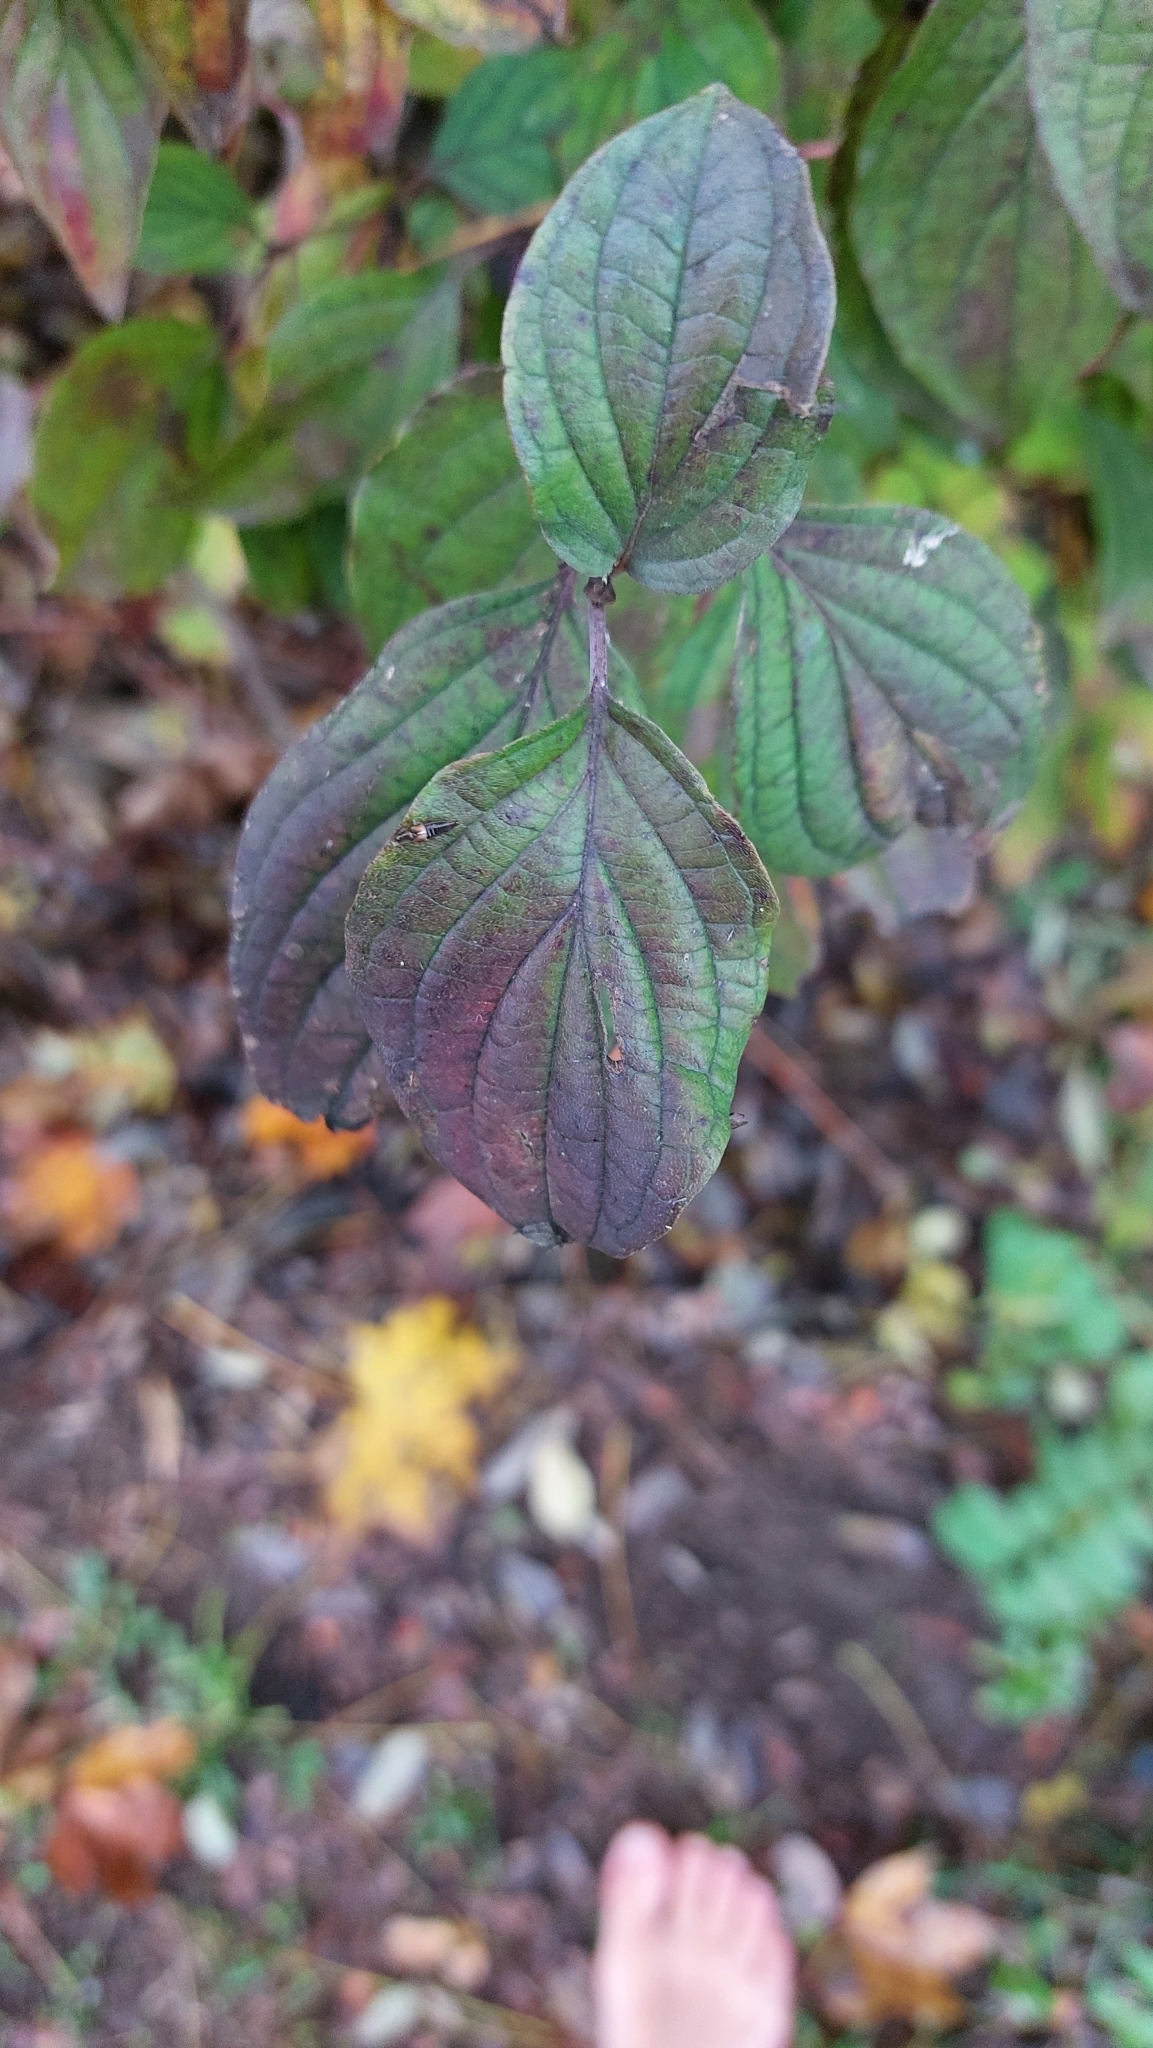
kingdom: Plantae
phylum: Tracheophyta
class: Magnoliopsida
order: Cornales
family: Cornaceae
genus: Cornus
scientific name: Cornus sanguinea
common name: Dogwood
